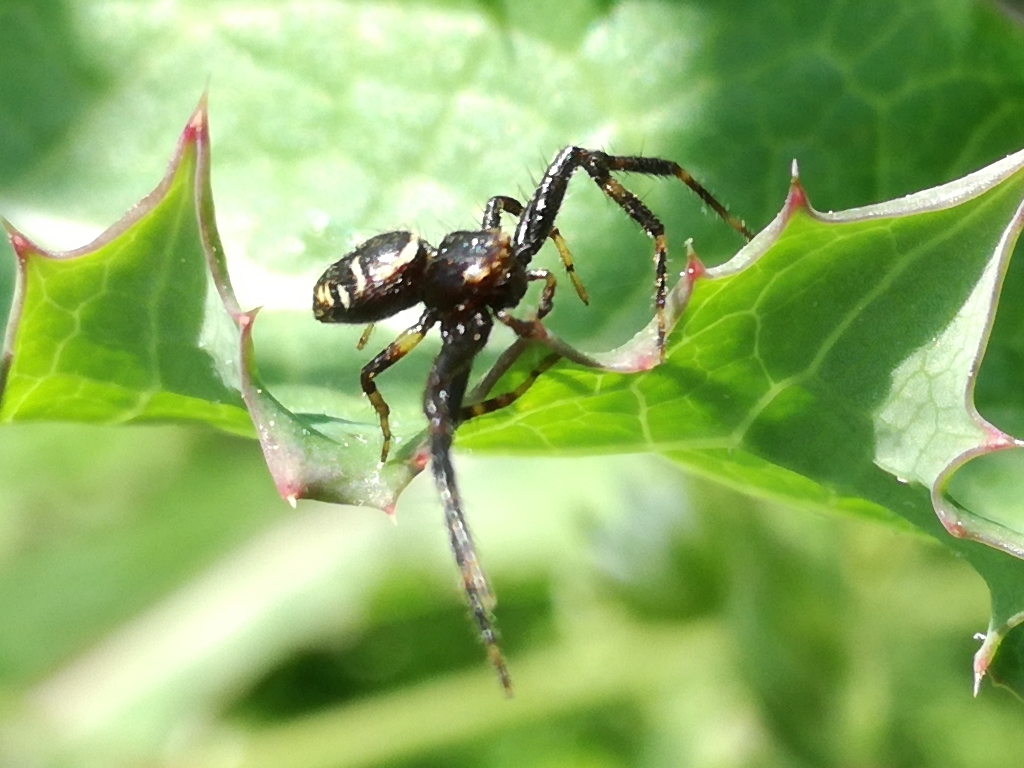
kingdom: Animalia
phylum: Arthropoda
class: Arachnida
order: Araneae
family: Thomisidae
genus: Synema
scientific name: Synema globosum
